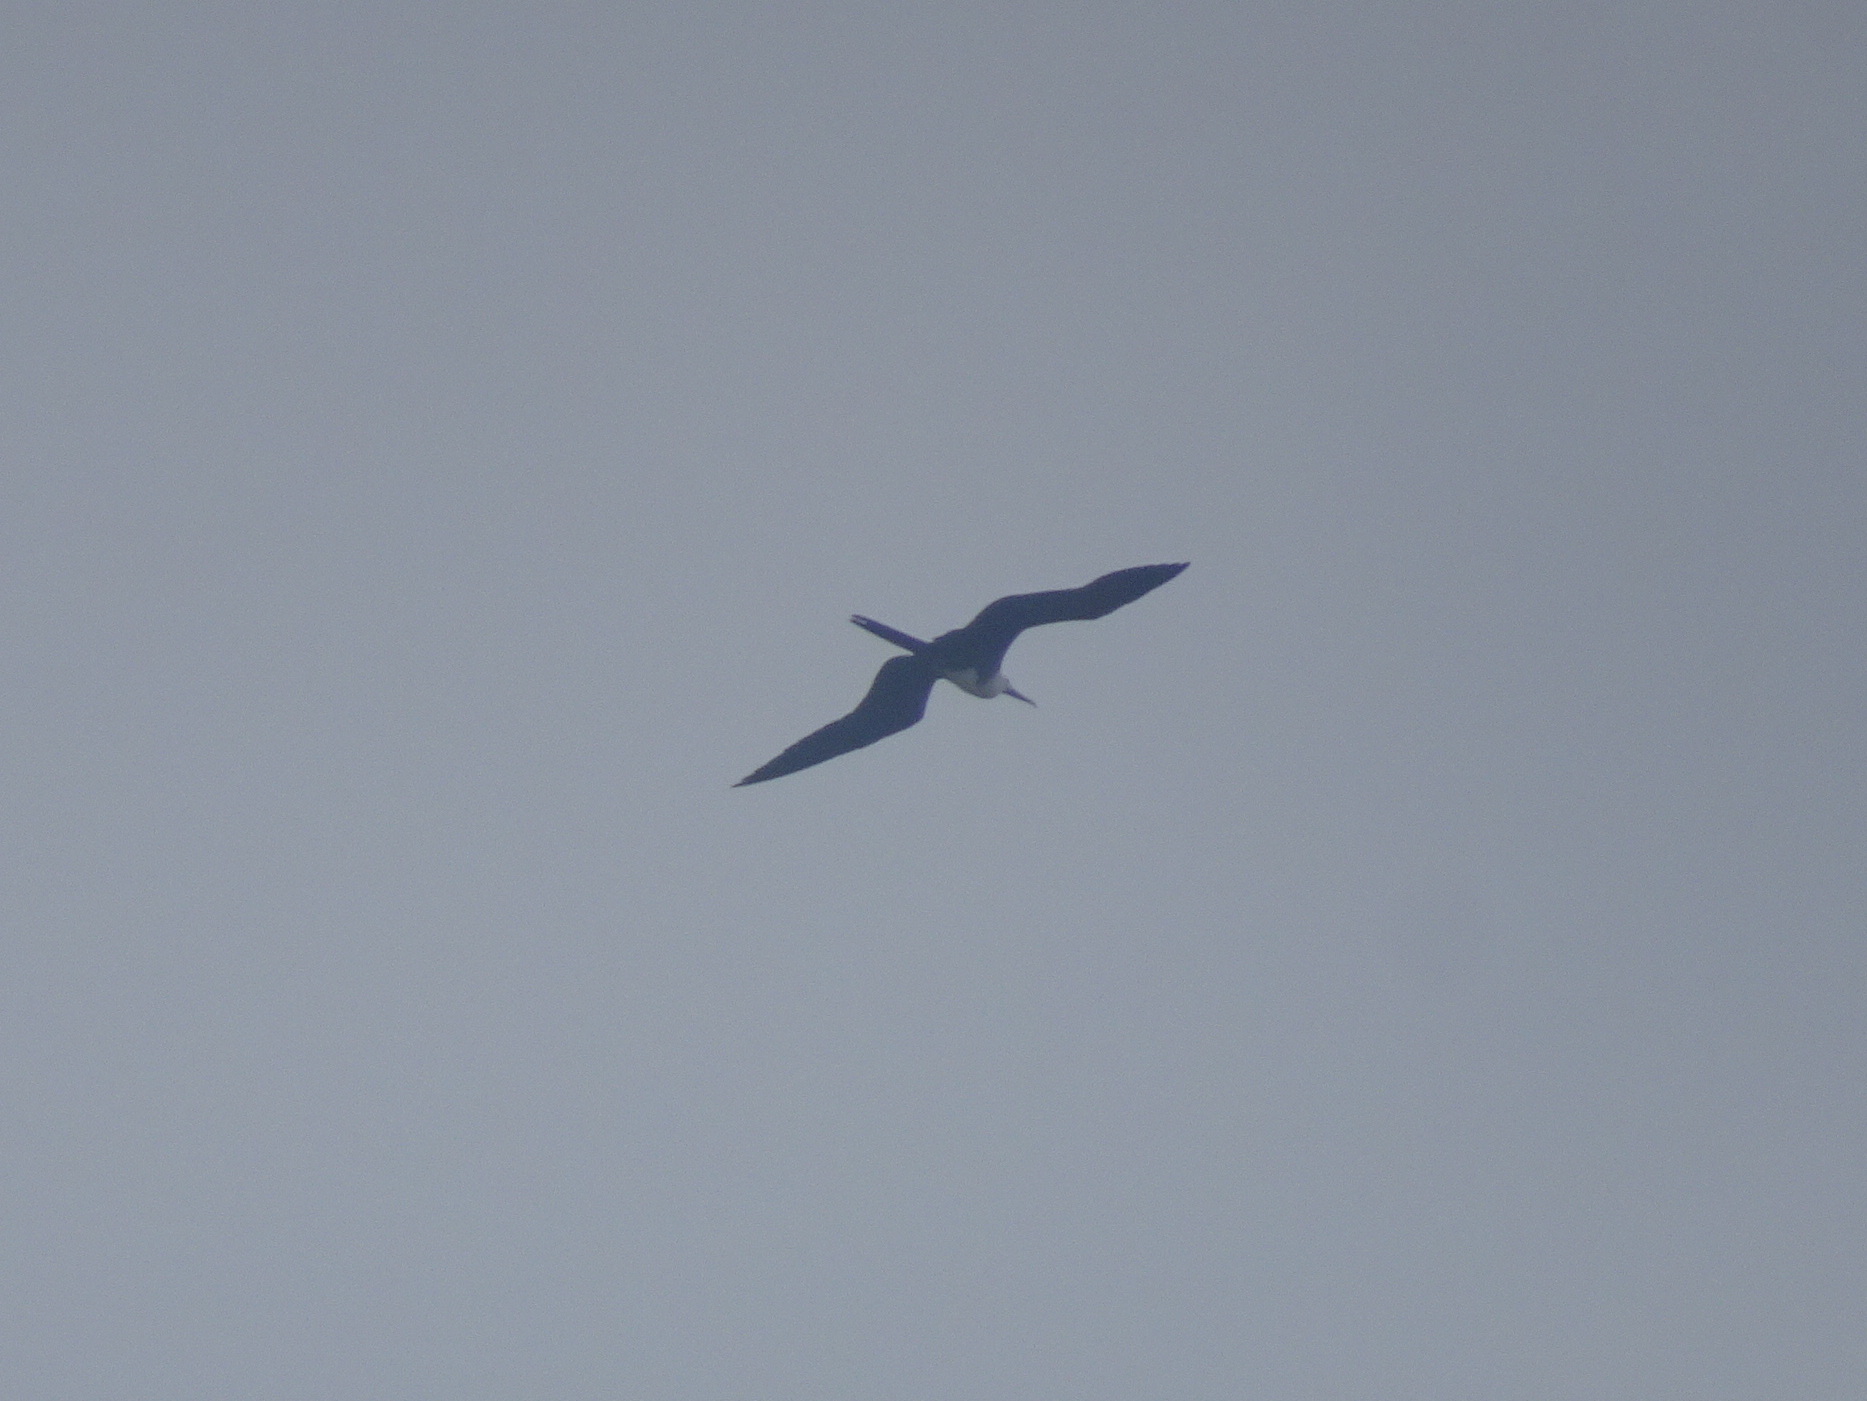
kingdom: Animalia
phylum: Chordata
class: Aves
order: Suliformes
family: Fregatidae
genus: Fregata
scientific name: Fregata magnificens
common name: Magnificent frigatebird
